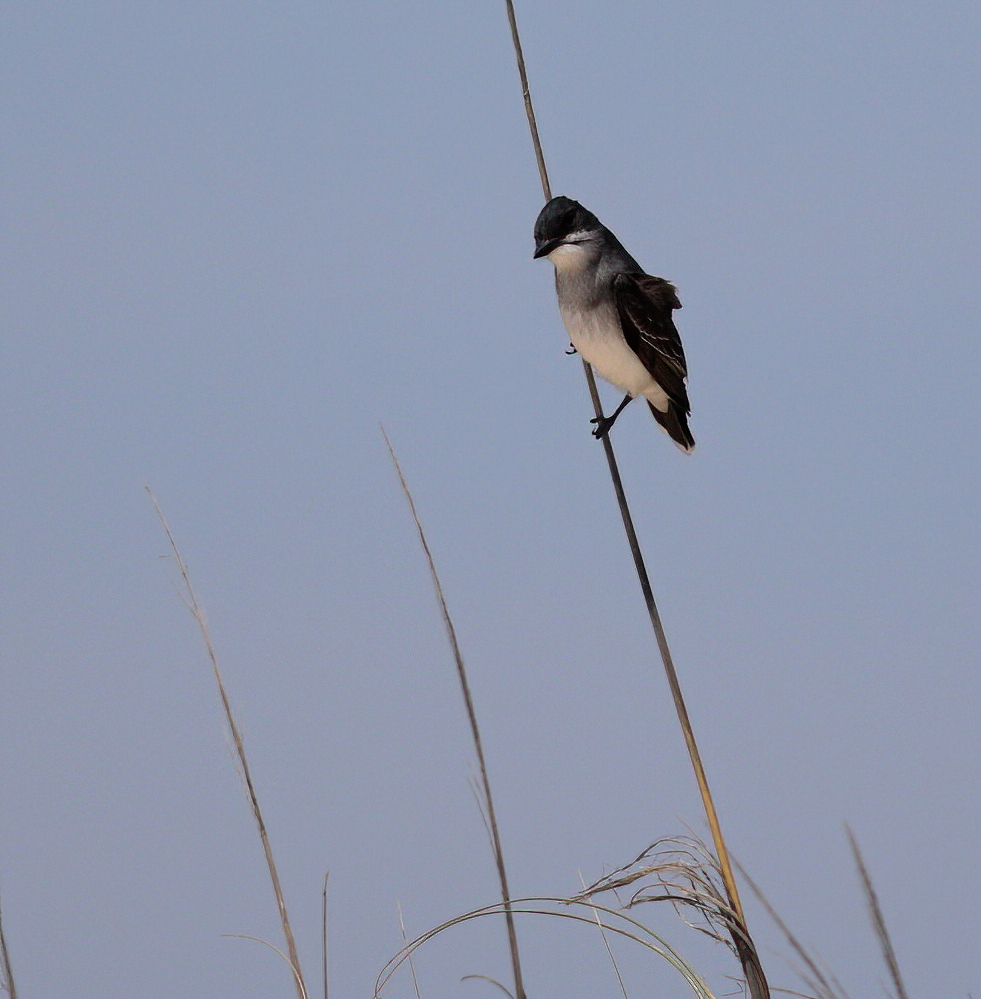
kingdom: Animalia
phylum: Chordata
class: Aves
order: Passeriformes
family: Tyrannidae
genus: Tyrannus
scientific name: Tyrannus tyrannus
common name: Eastern kingbird
